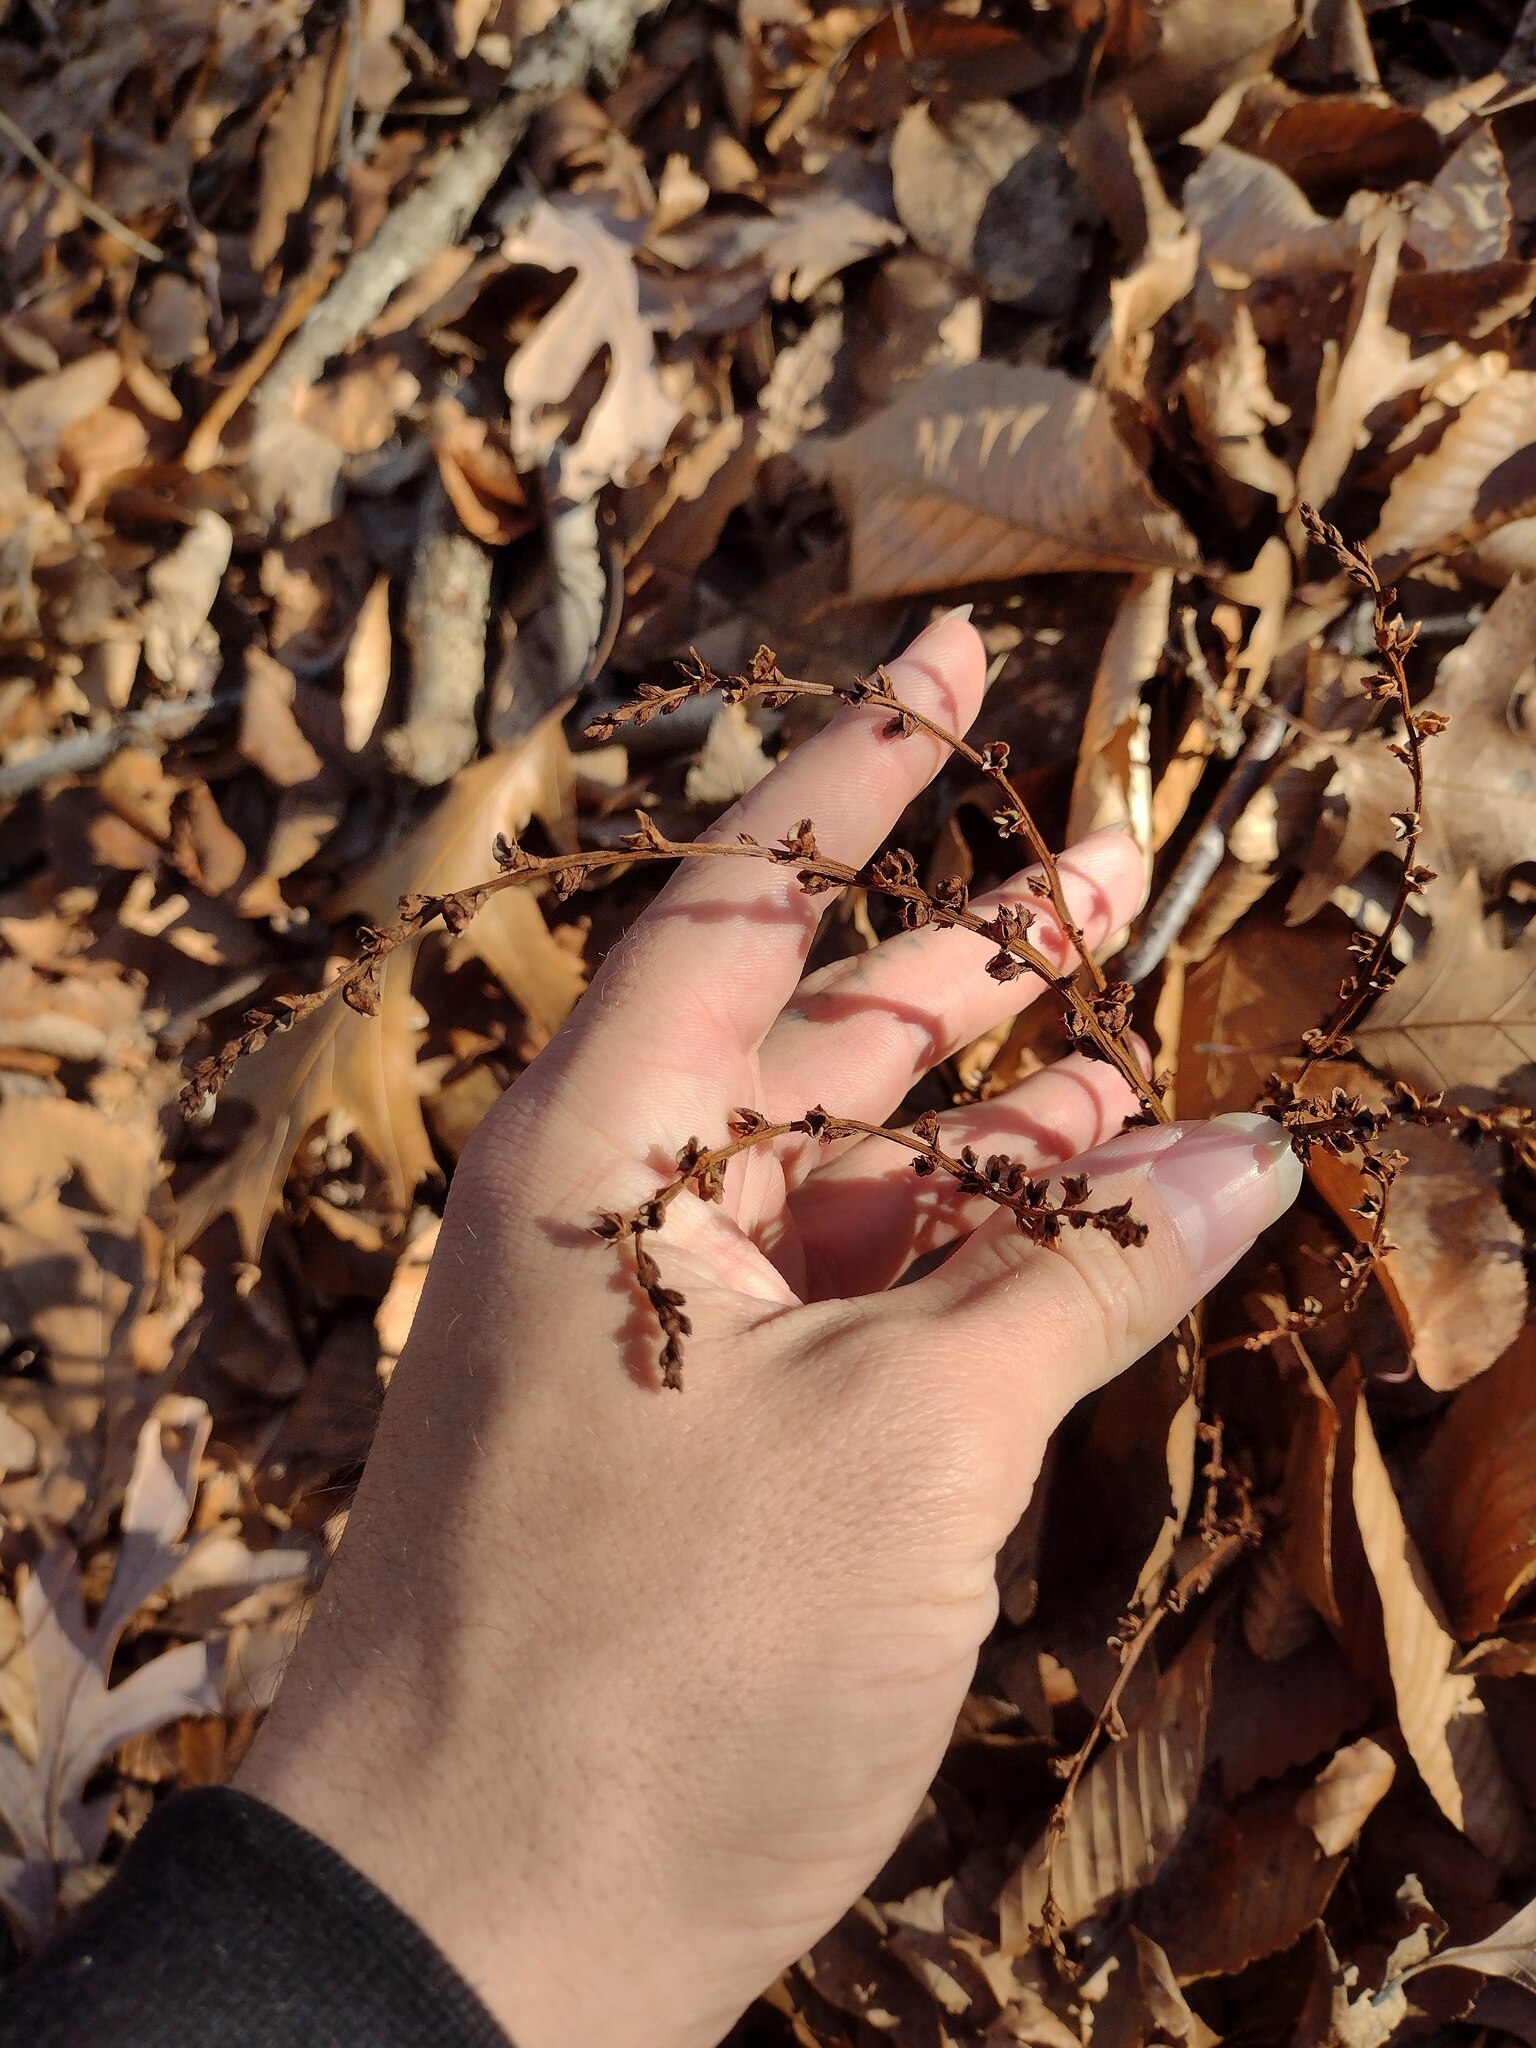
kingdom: Plantae
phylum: Tracheophyta
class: Magnoliopsida
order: Lamiales
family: Orobanchaceae
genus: Epifagus
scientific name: Epifagus virginiana
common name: Beechdrops
